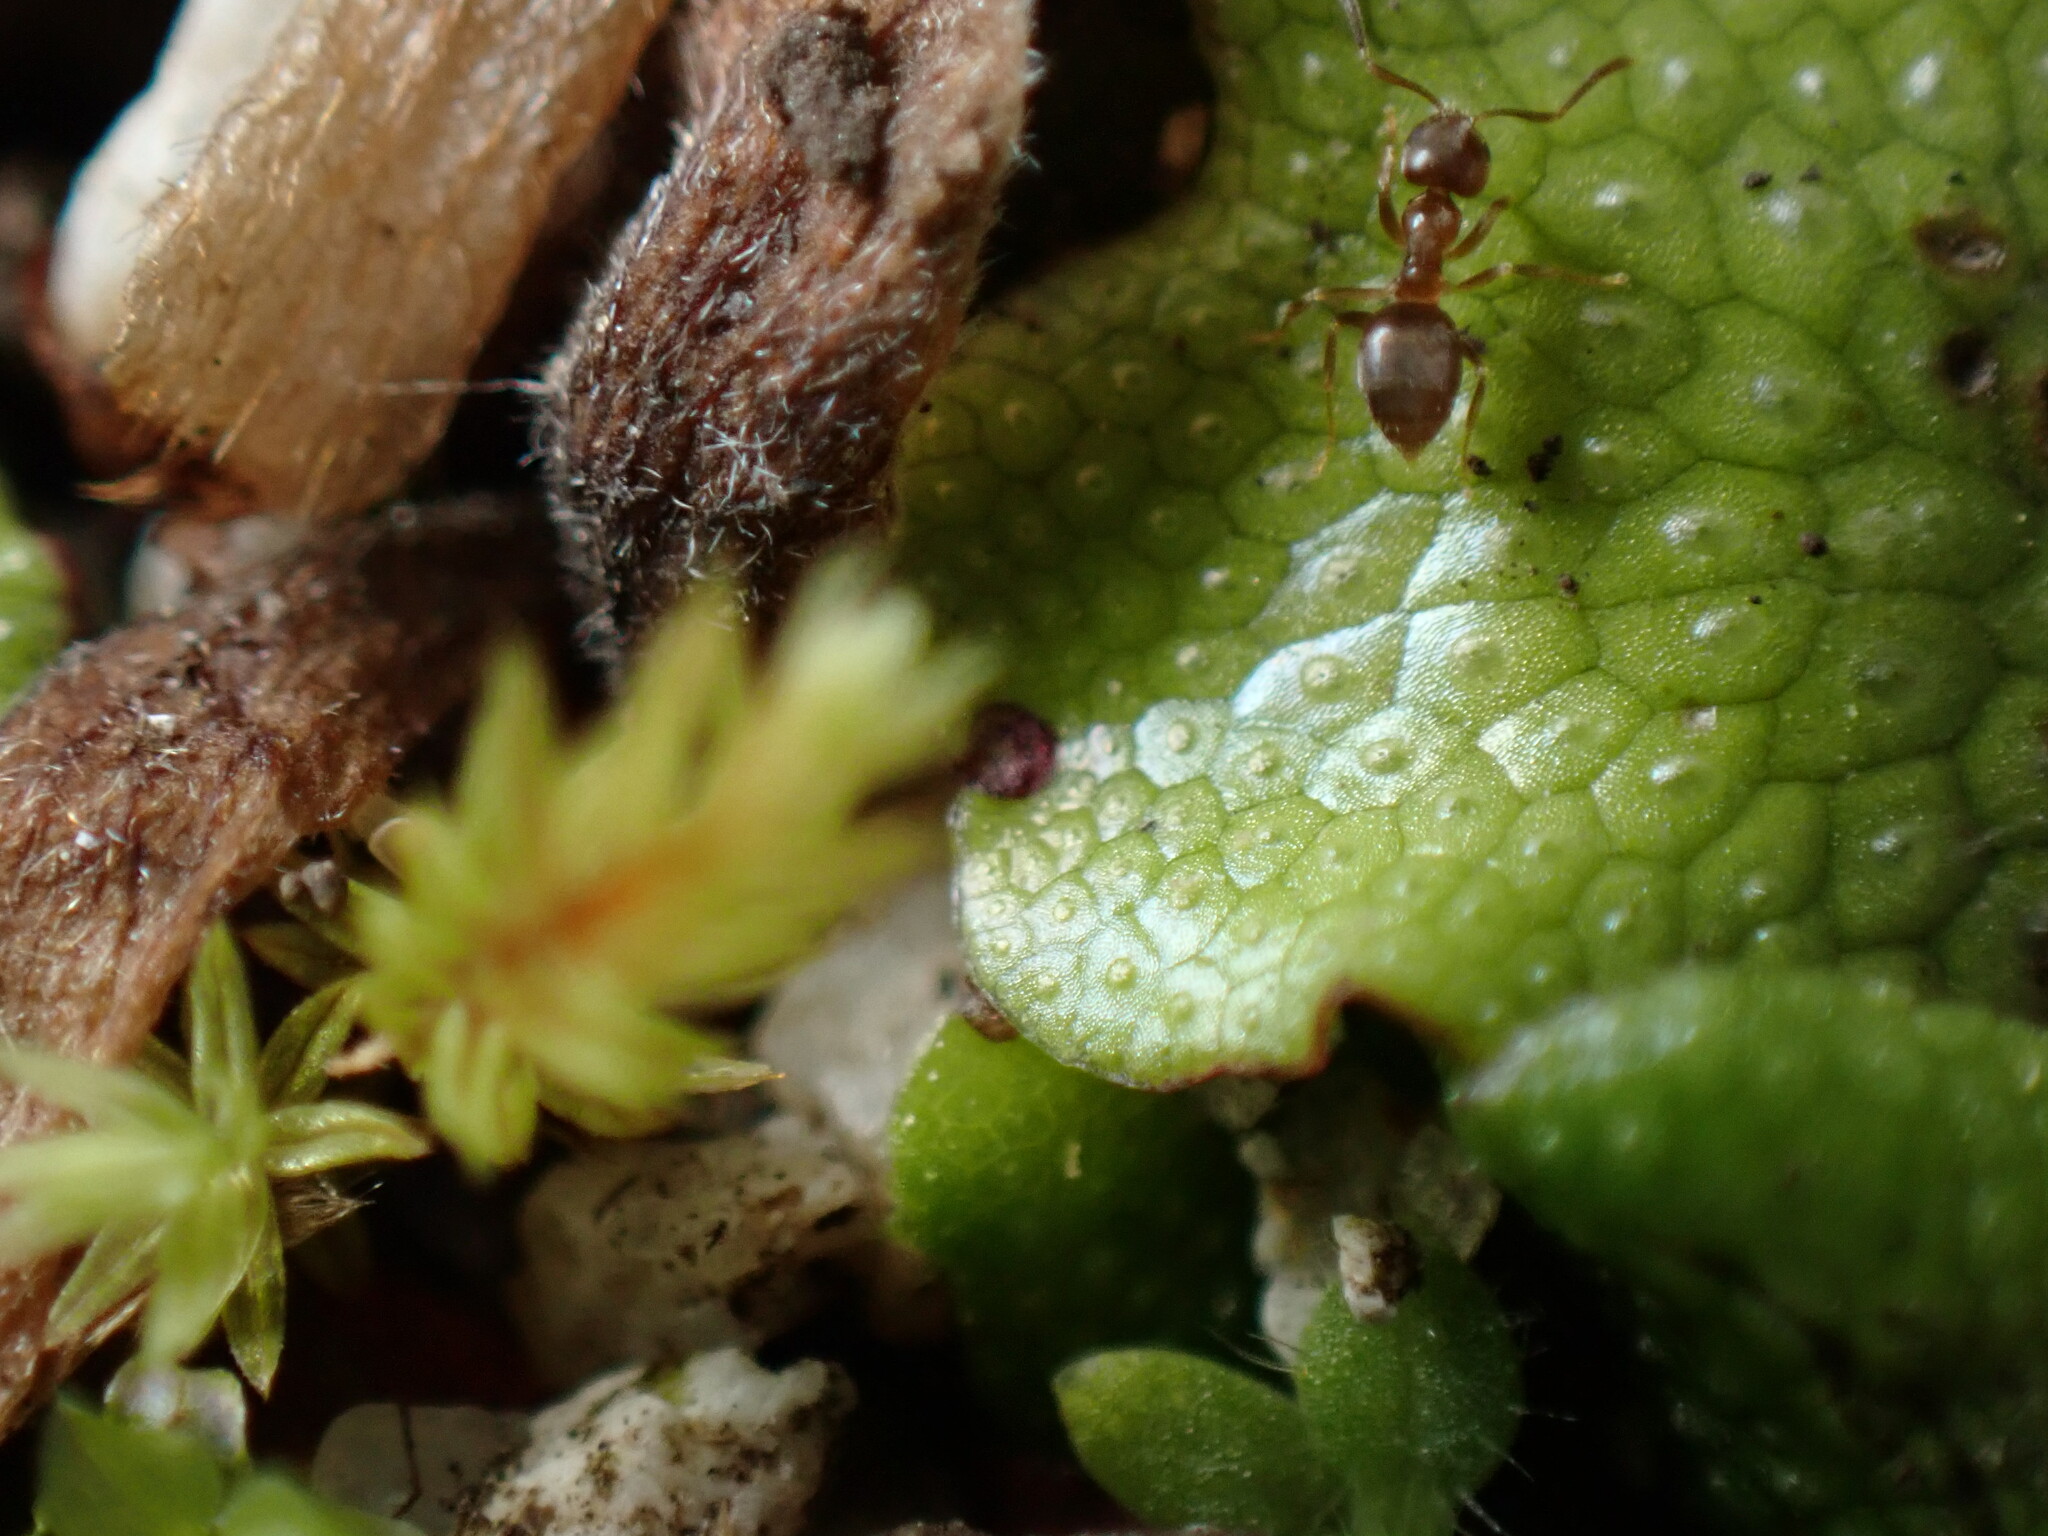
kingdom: Animalia
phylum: Arthropoda
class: Insecta
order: Hymenoptera
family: Formicidae
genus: Paraparatrechina
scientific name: Paraparatrechina
